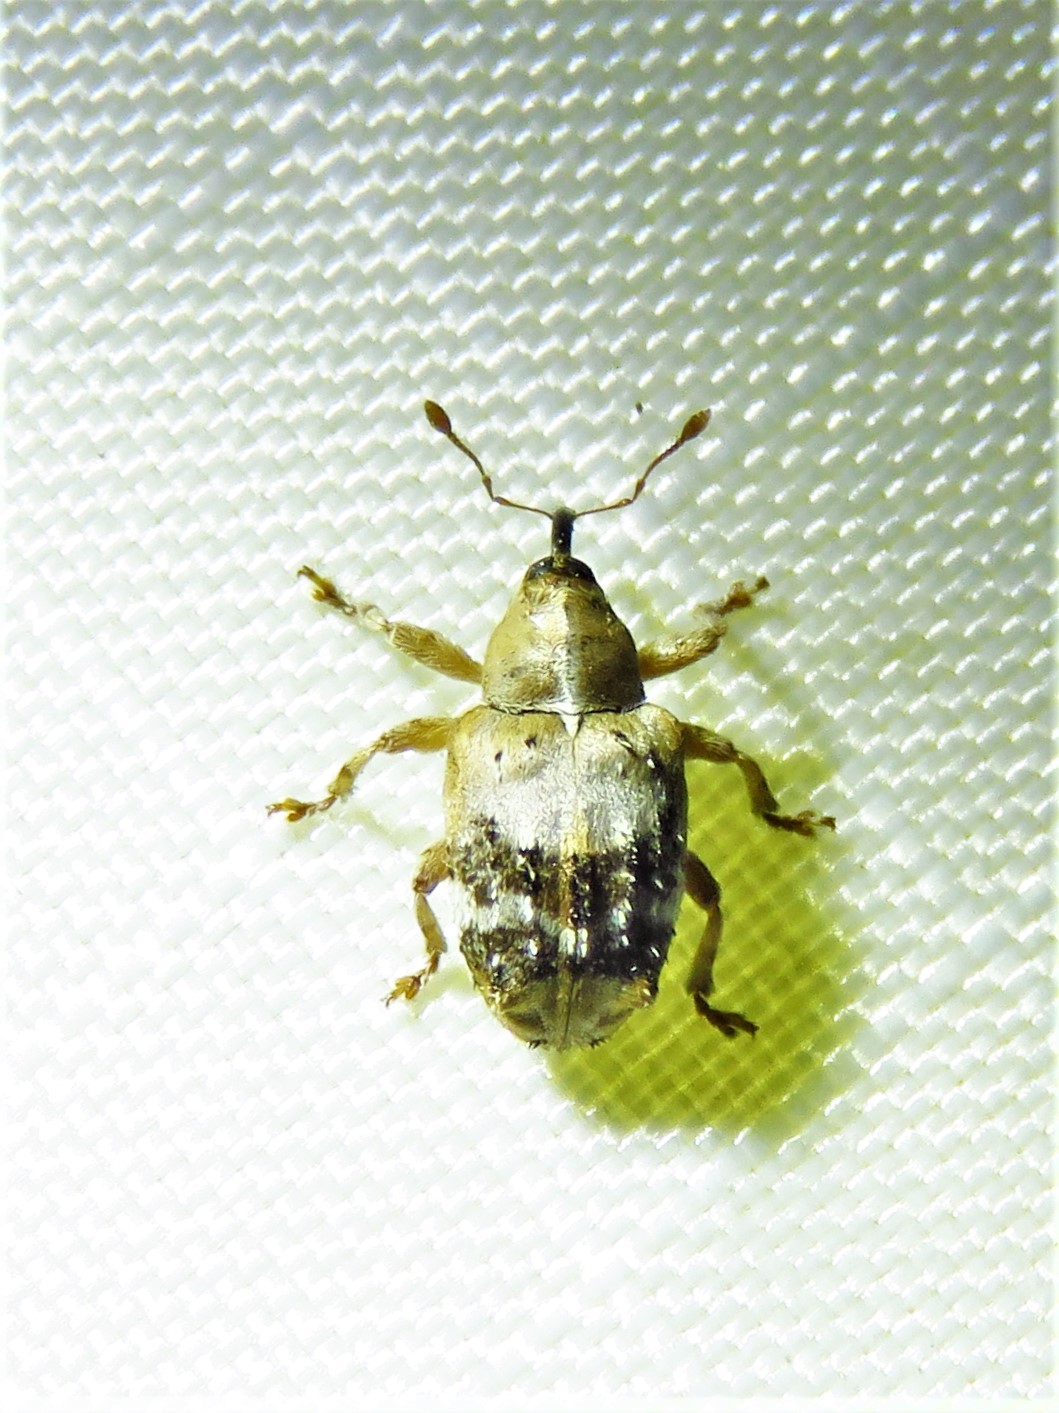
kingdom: Animalia
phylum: Arthropoda
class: Insecta
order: Coleoptera
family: Curculionidae
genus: Lignyodes
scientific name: Lignyodes pallidus
